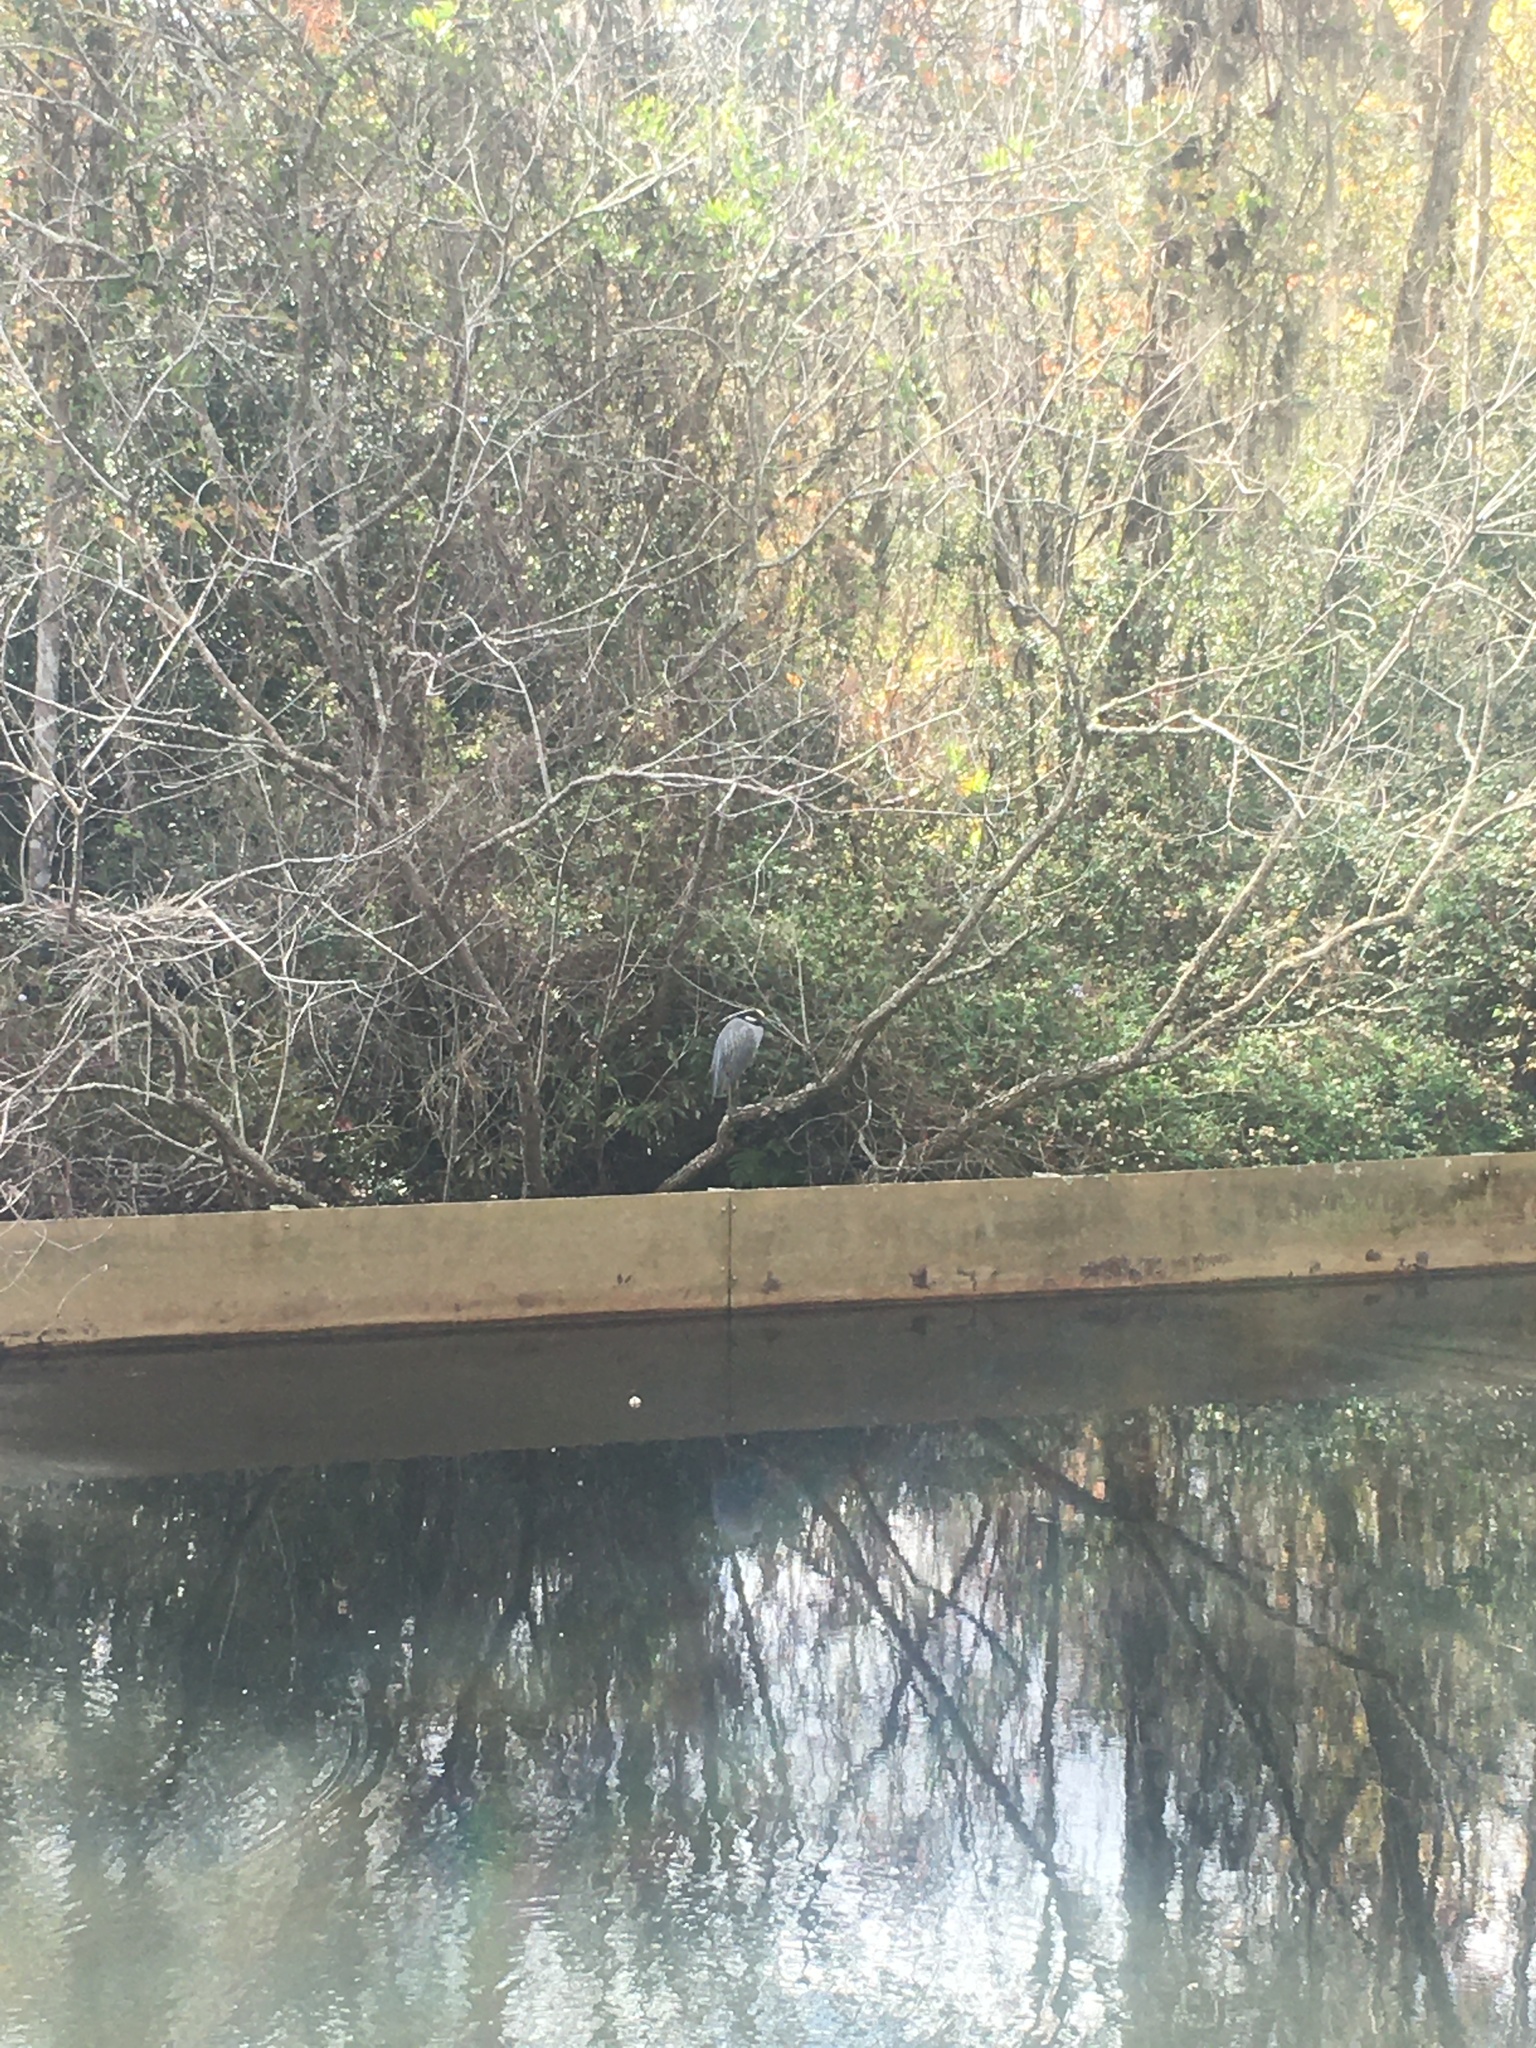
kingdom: Animalia
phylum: Chordata
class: Aves
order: Pelecaniformes
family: Ardeidae
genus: Nyctanassa
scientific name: Nyctanassa violacea
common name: Yellow-crowned night heron
